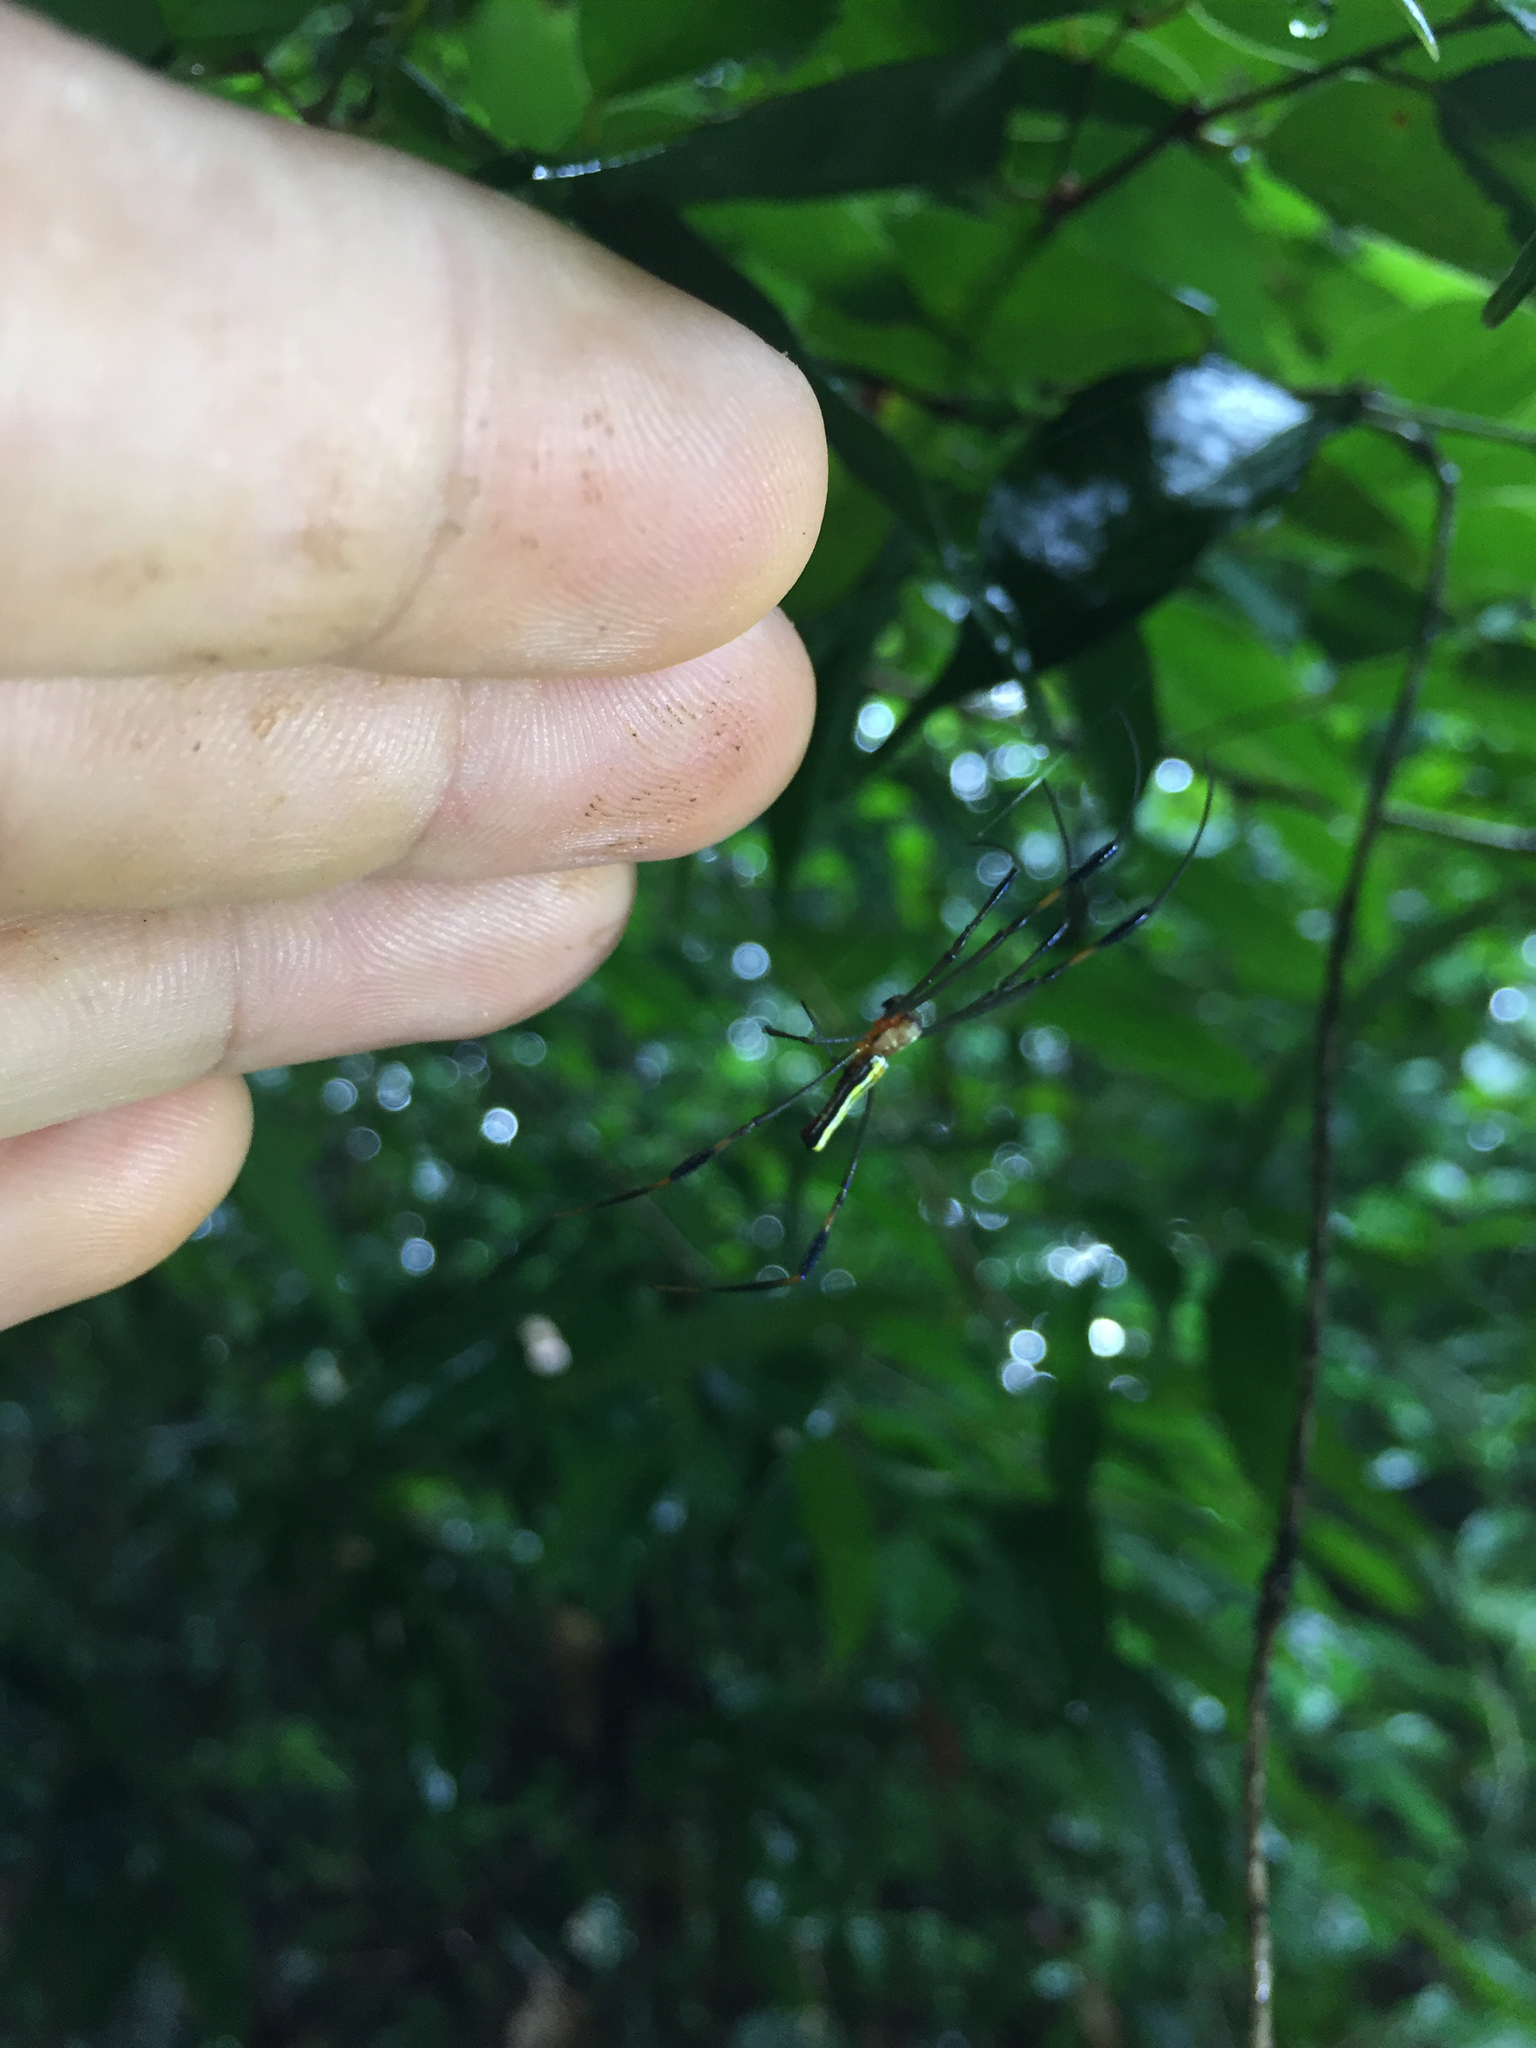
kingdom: Animalia
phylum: Arthropoda
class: Arachnida
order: Araneae
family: Araneidae
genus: Nephila
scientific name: Nephila pilipes
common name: Giant golden orb weaver
